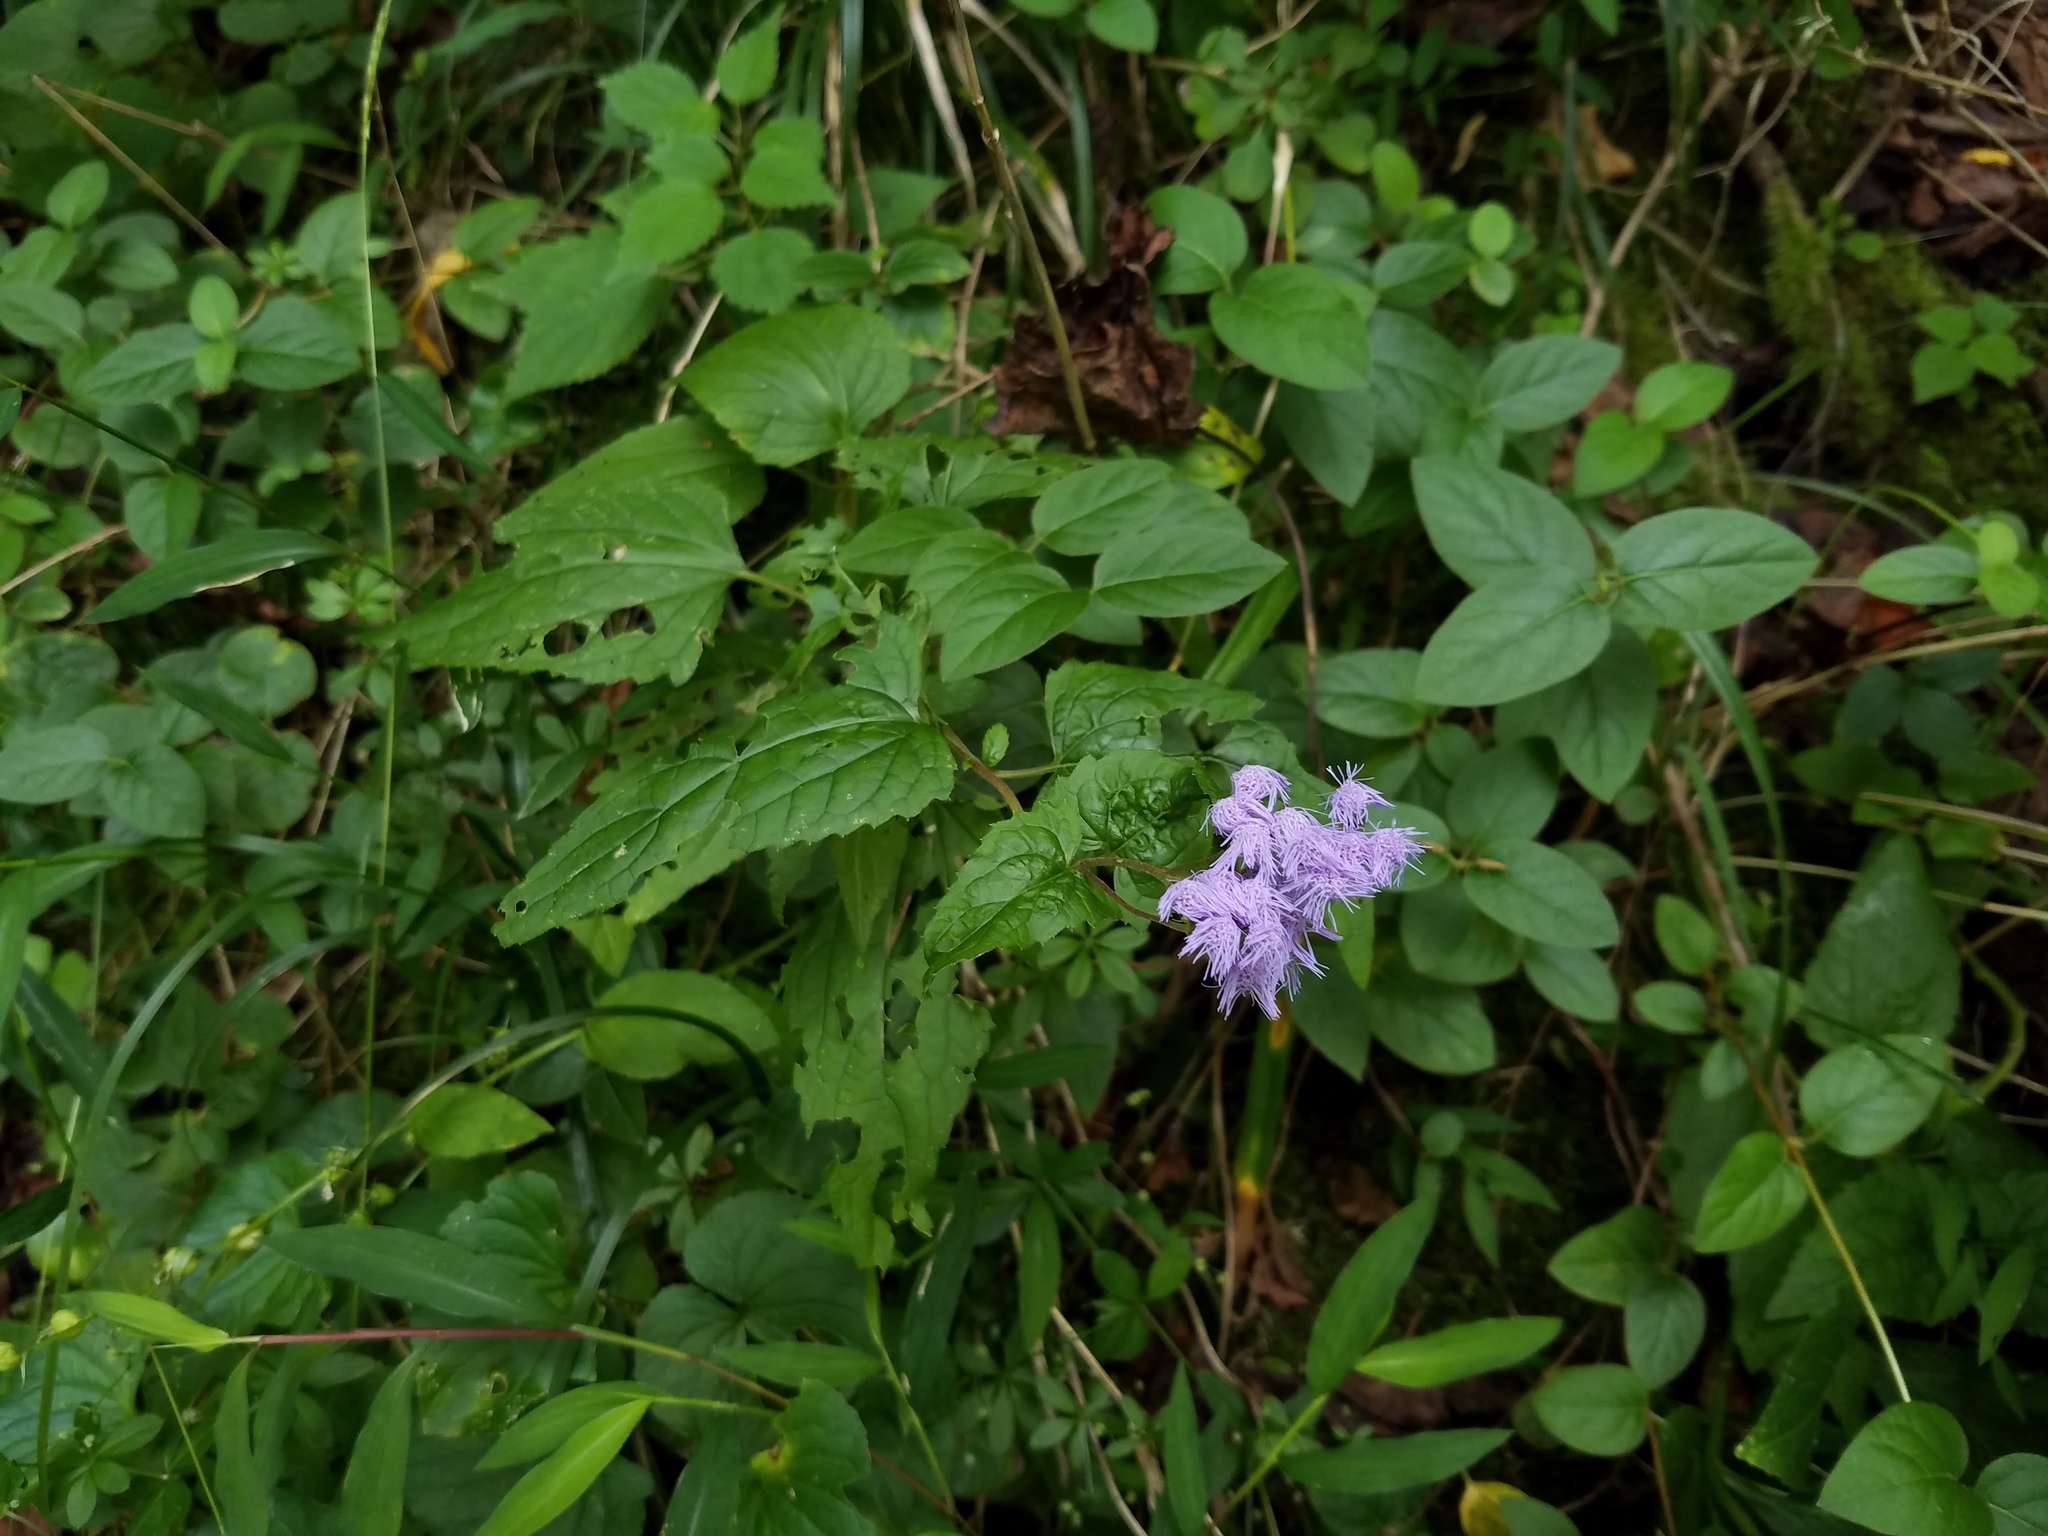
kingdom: Plantae
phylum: Tracheophyta
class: Magnoliopsida
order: Asterales
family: Asteraceae
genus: Conoclinium
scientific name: Conoclinium coelestinum
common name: Blue mistflower
